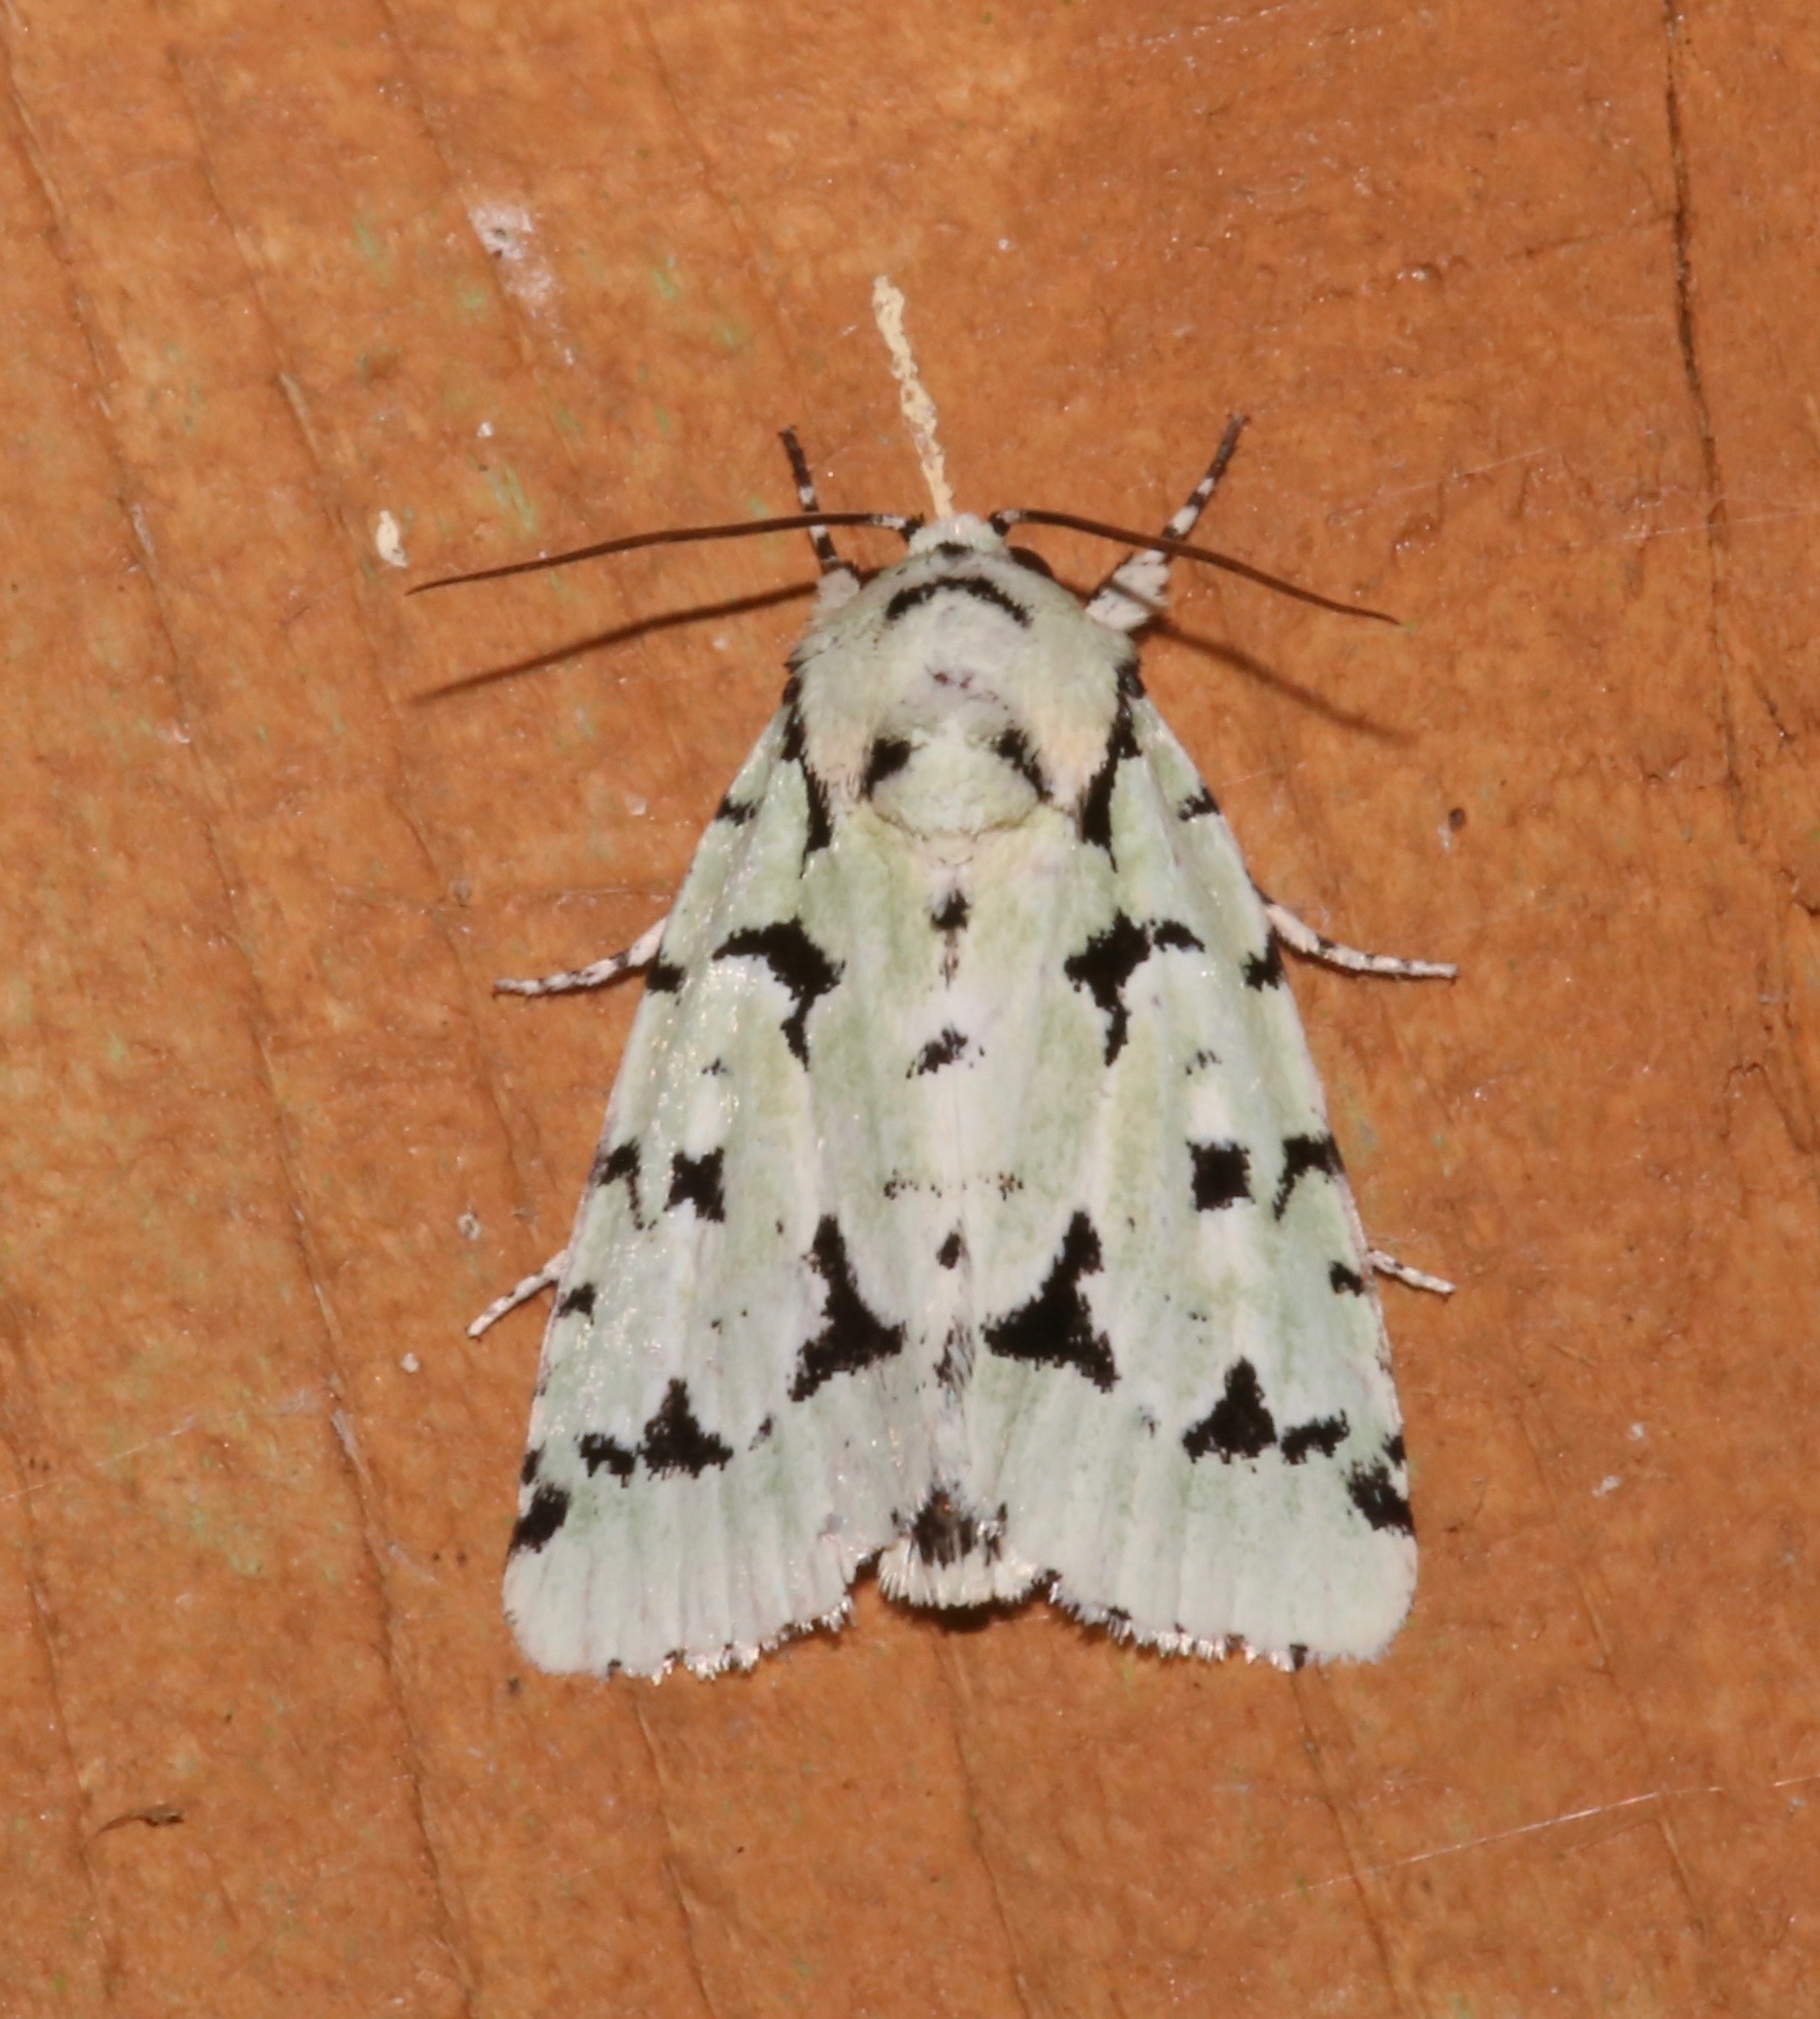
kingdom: Animalia
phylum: Arthropoda
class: Insecta
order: Lepidoptera
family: Noctuidae
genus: Acronicta
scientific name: Acronicta fallax
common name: Green marvel
